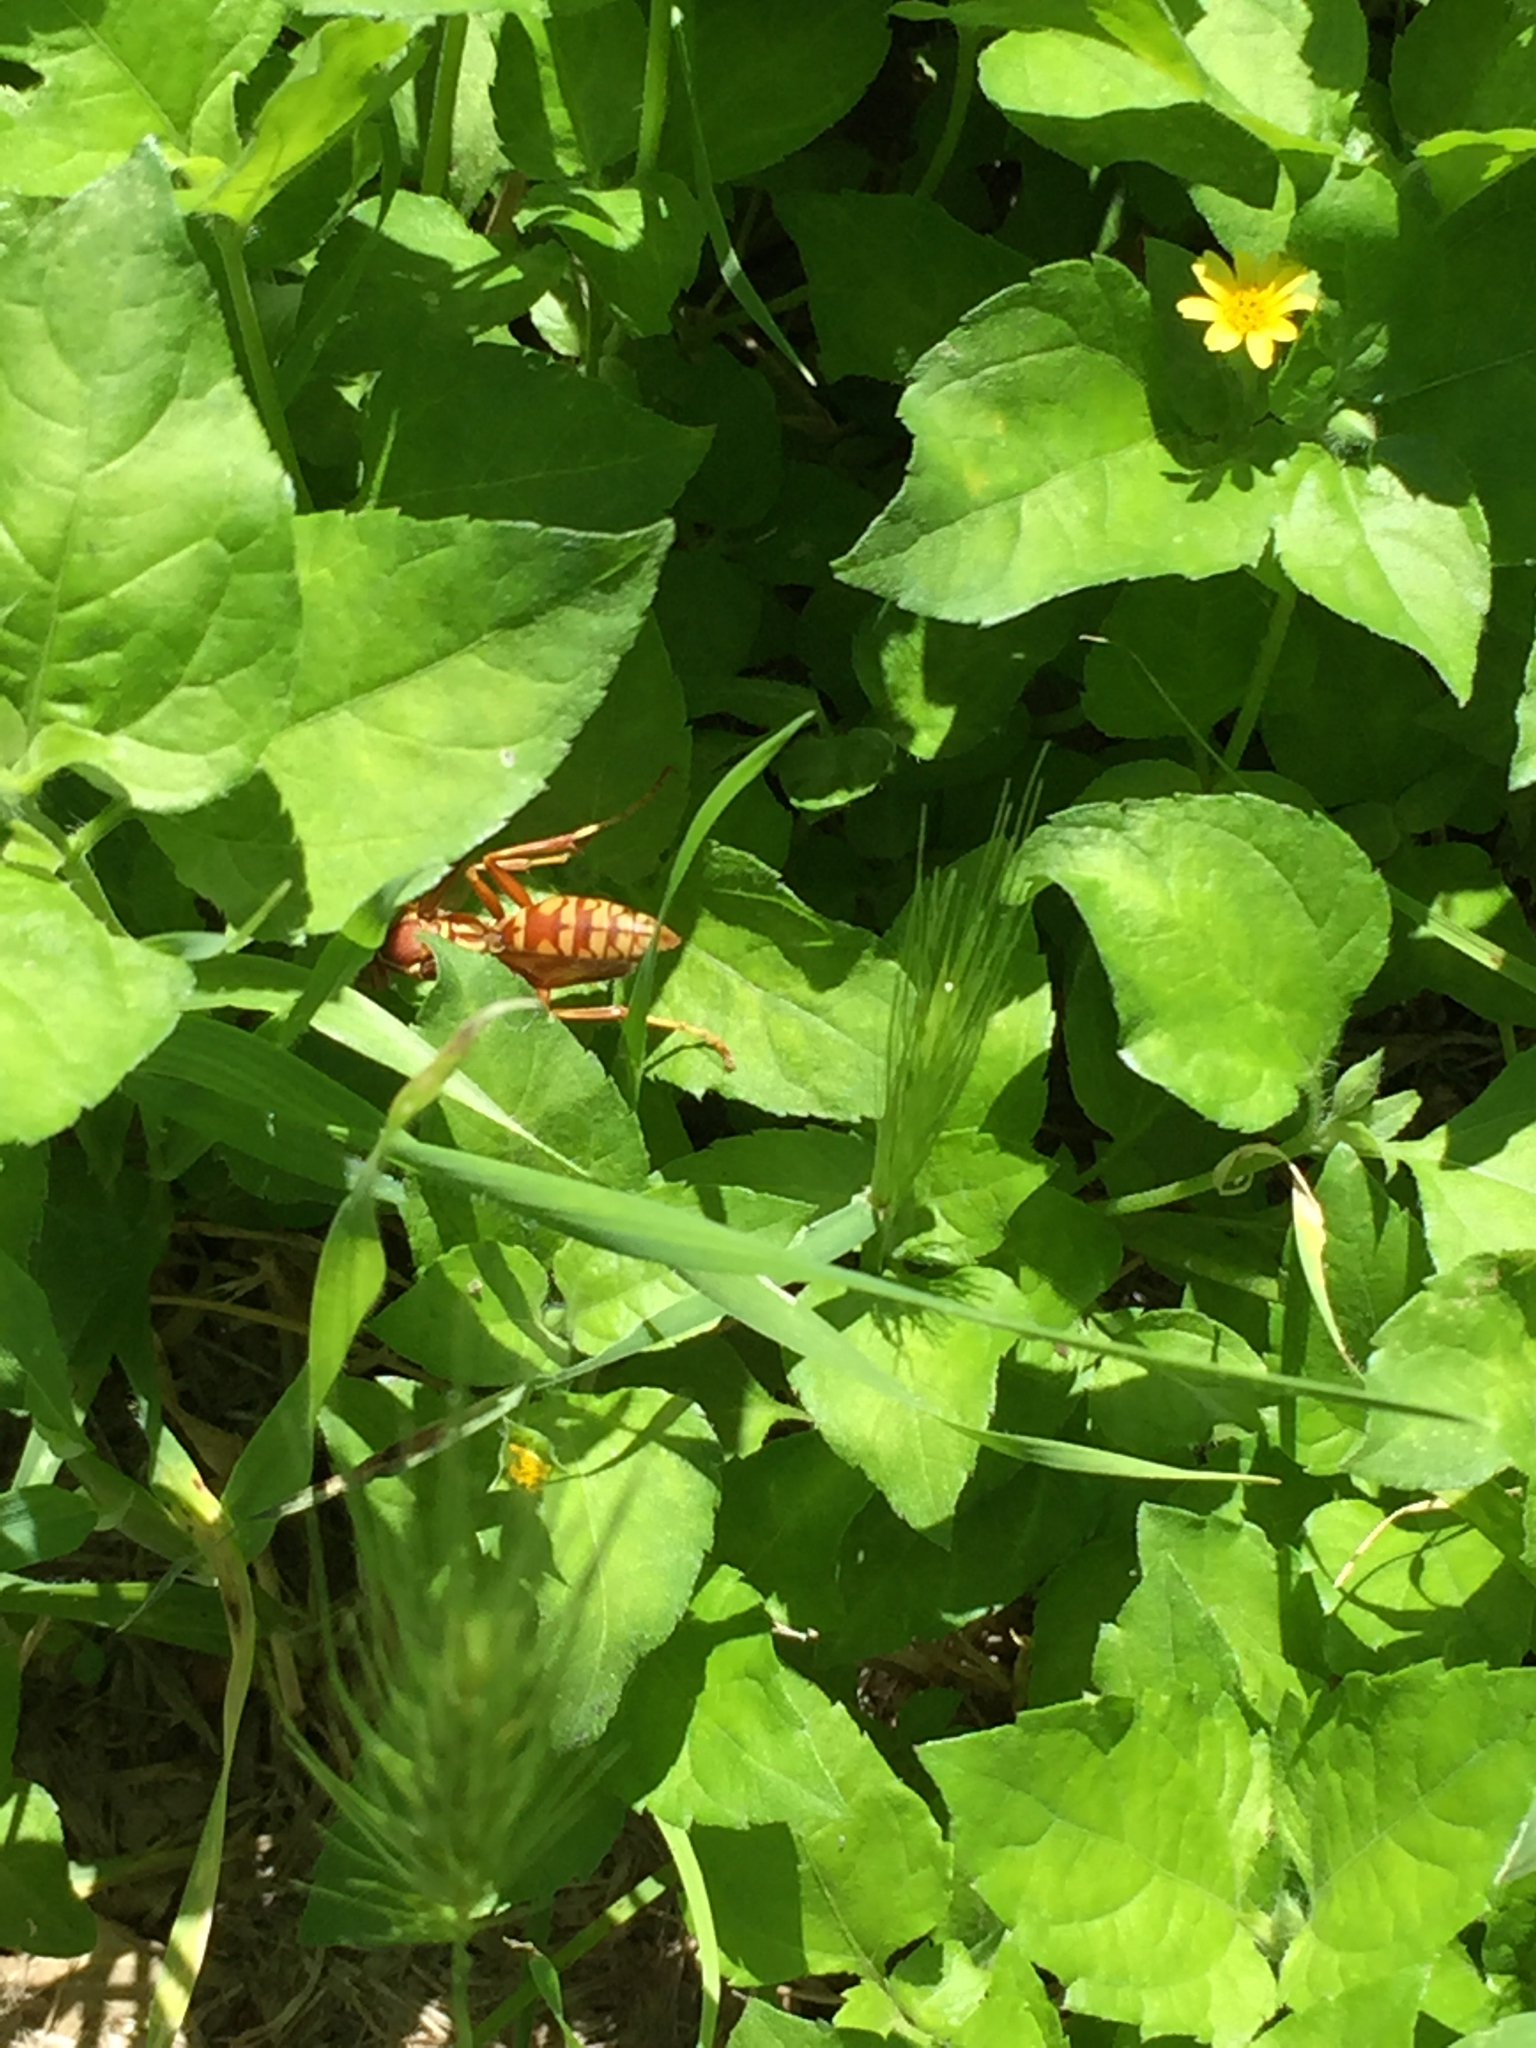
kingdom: Animalia
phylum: Arthropoda
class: Insecta
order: Hymenoptera
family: Eumenidae
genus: Polistes
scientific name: Polistes apachus
